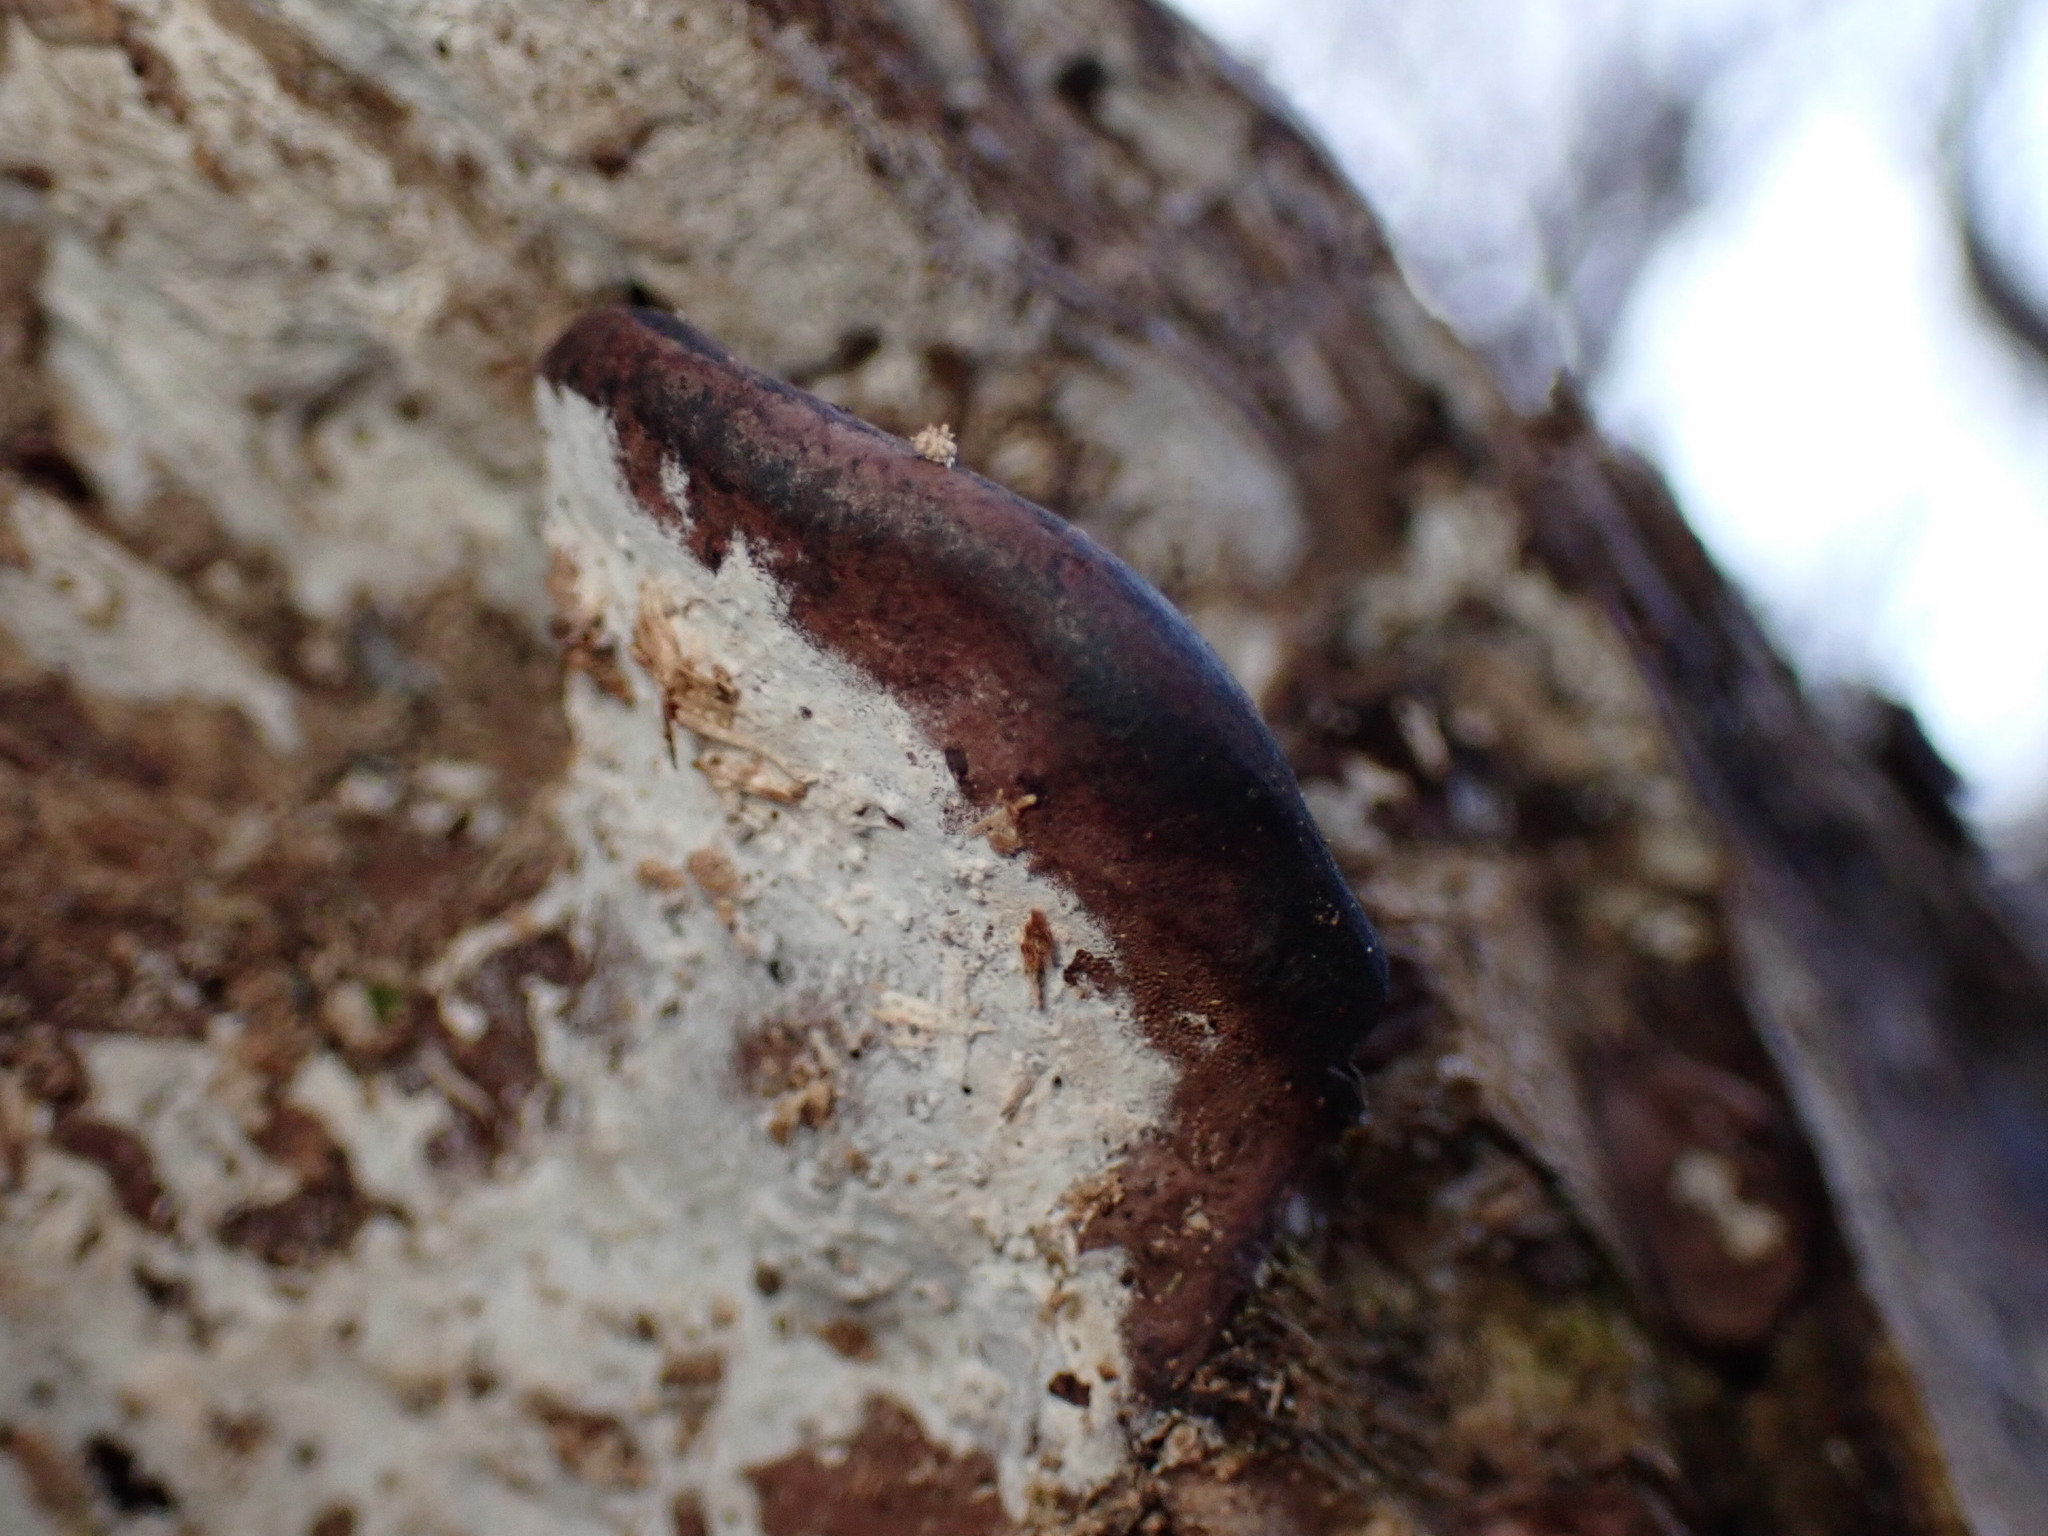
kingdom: Fungi
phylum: Basidiomycota
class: Agaricomycetes
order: Polyporales
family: Steccherinaceae
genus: Nigroporus
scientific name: Nigroporus vinosus
